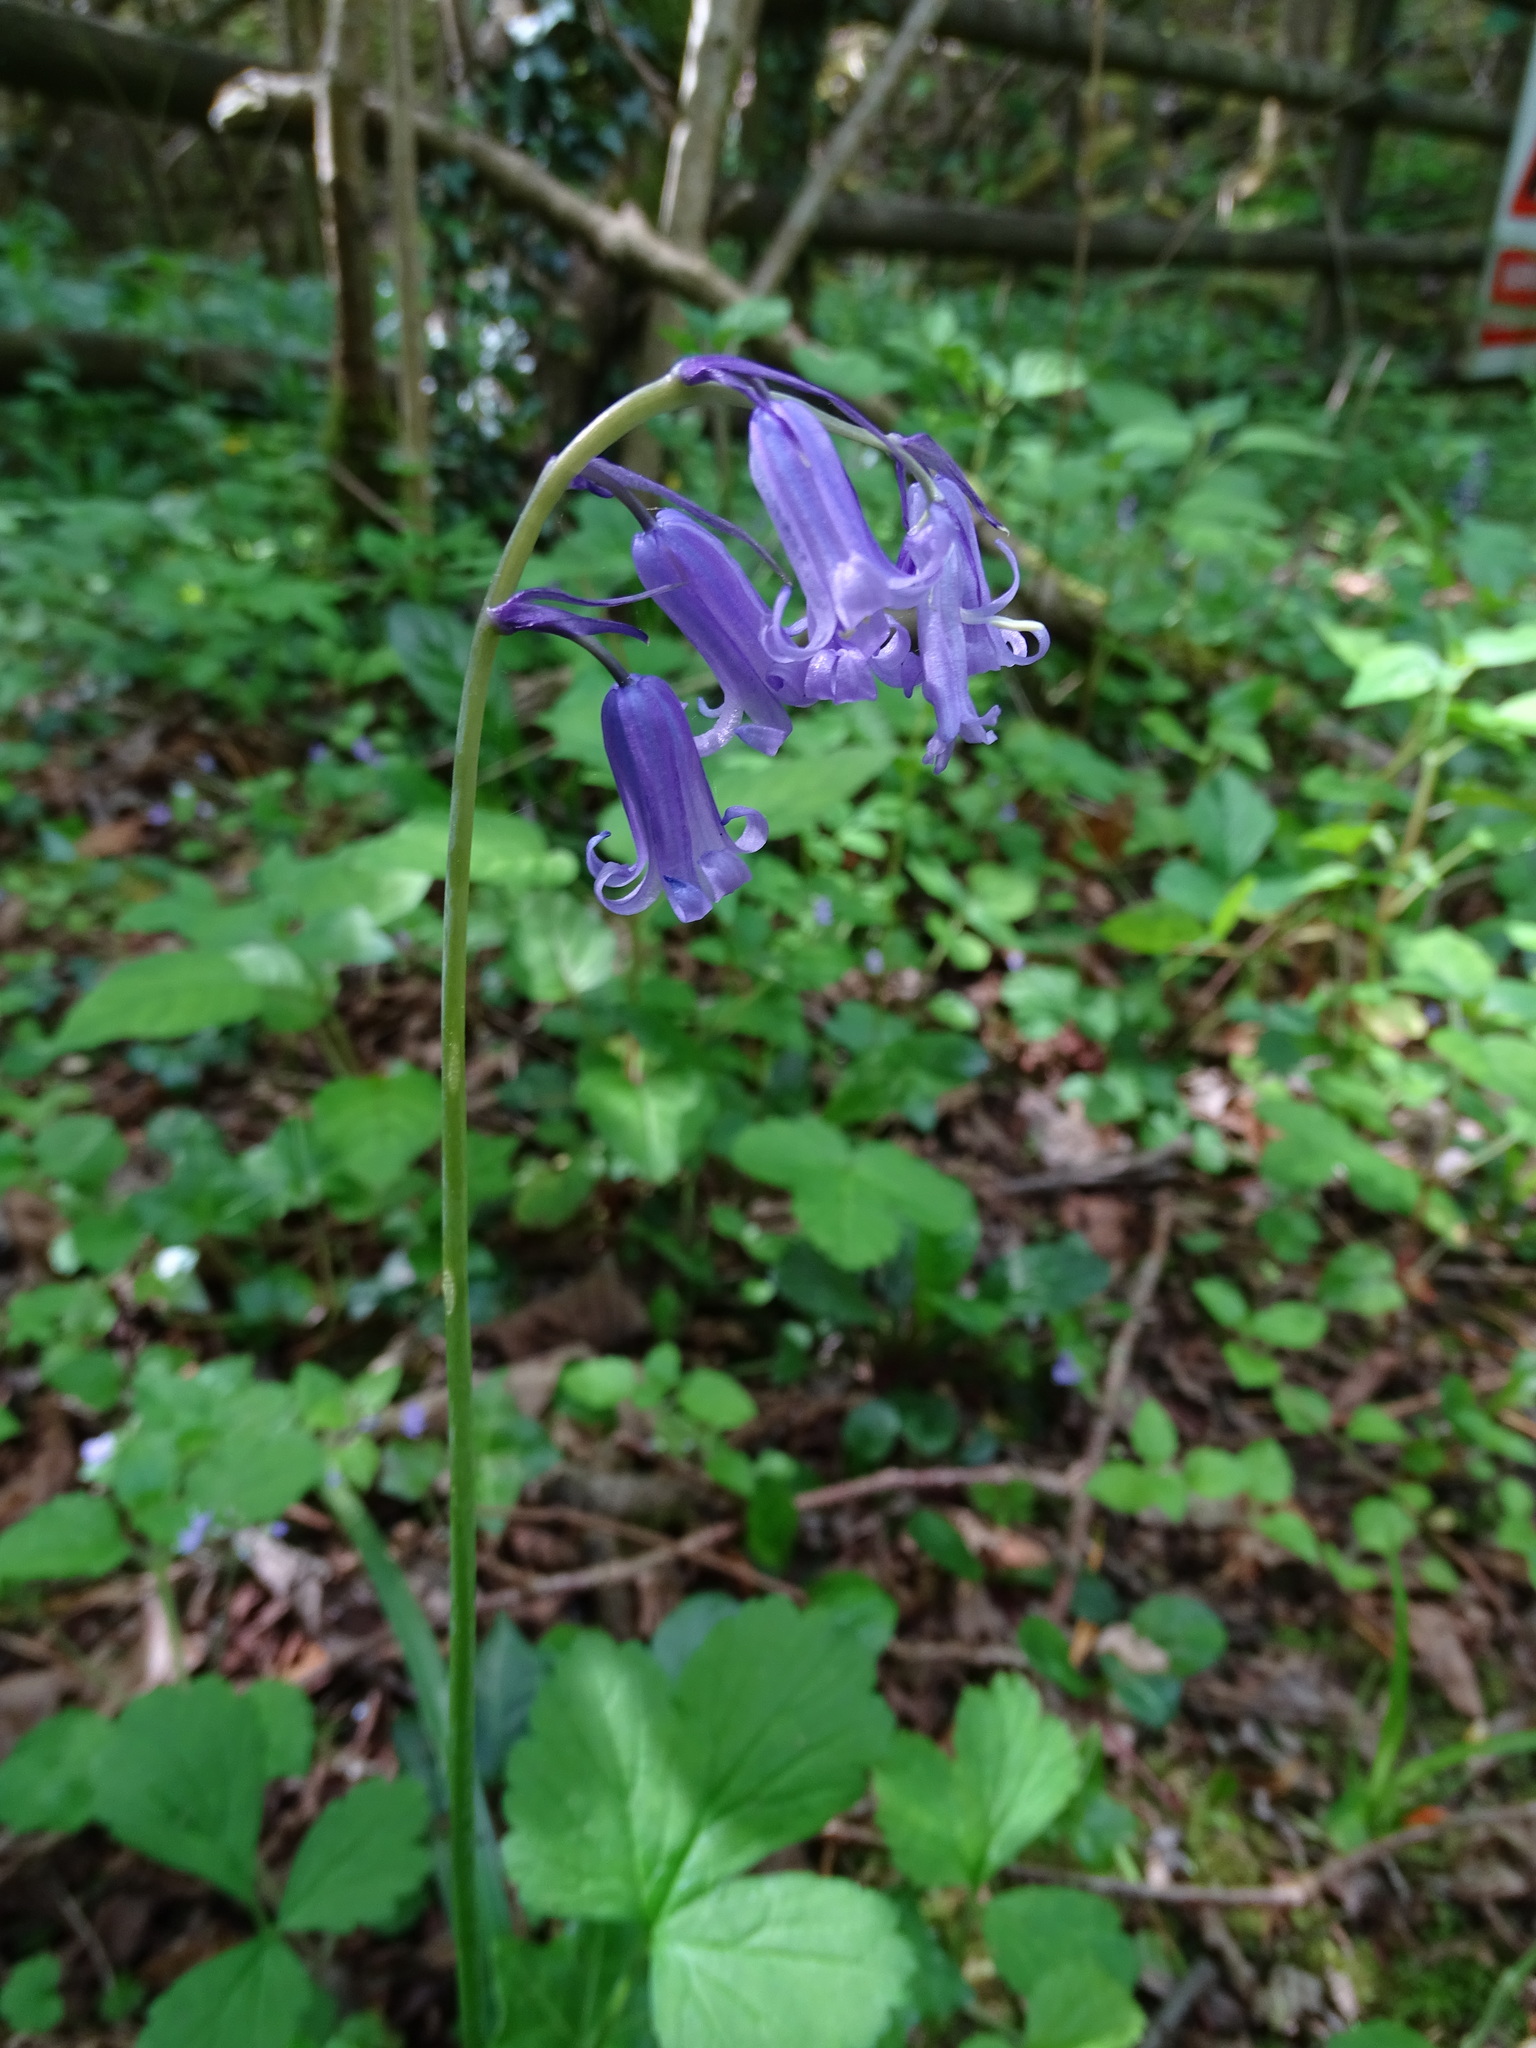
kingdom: Plantae
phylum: Tracheophyta
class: Liliopsida
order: Asparagales
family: Asparagaceae
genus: Hyacinthoides
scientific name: Hyacinthoides non-scripta
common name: Bluebell
